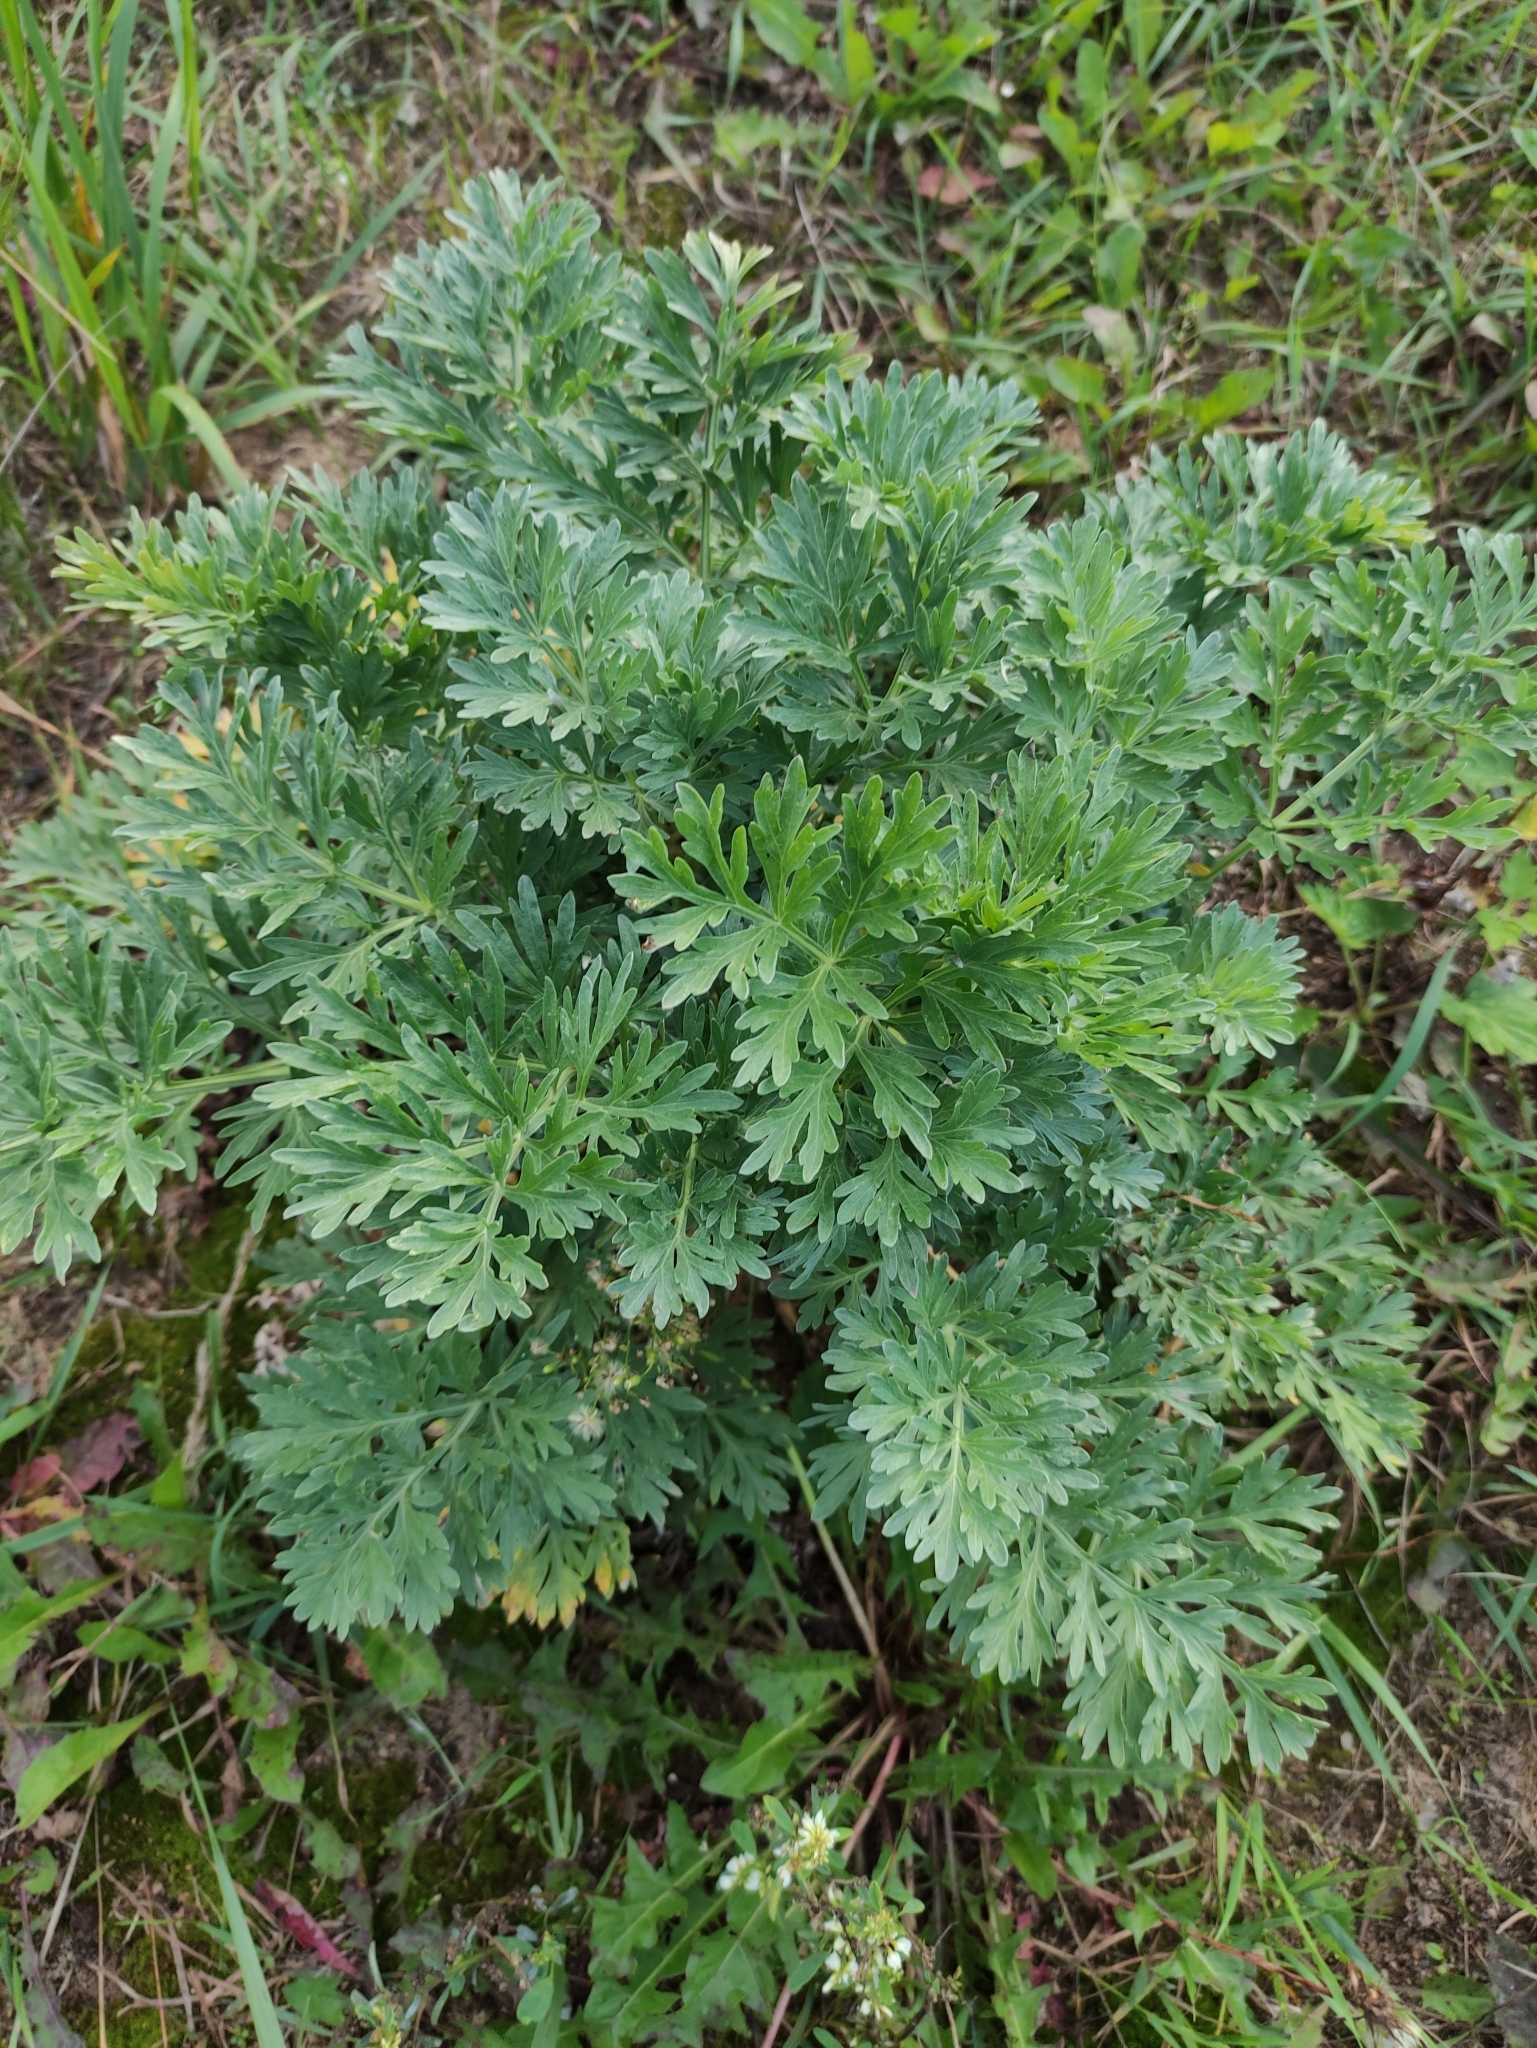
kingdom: Plantae
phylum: Tracheophyta
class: Magnoliopsida
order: Asterales
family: Asteraceae
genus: Artemisia
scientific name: Artemisia absinthium
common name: Wormwood
